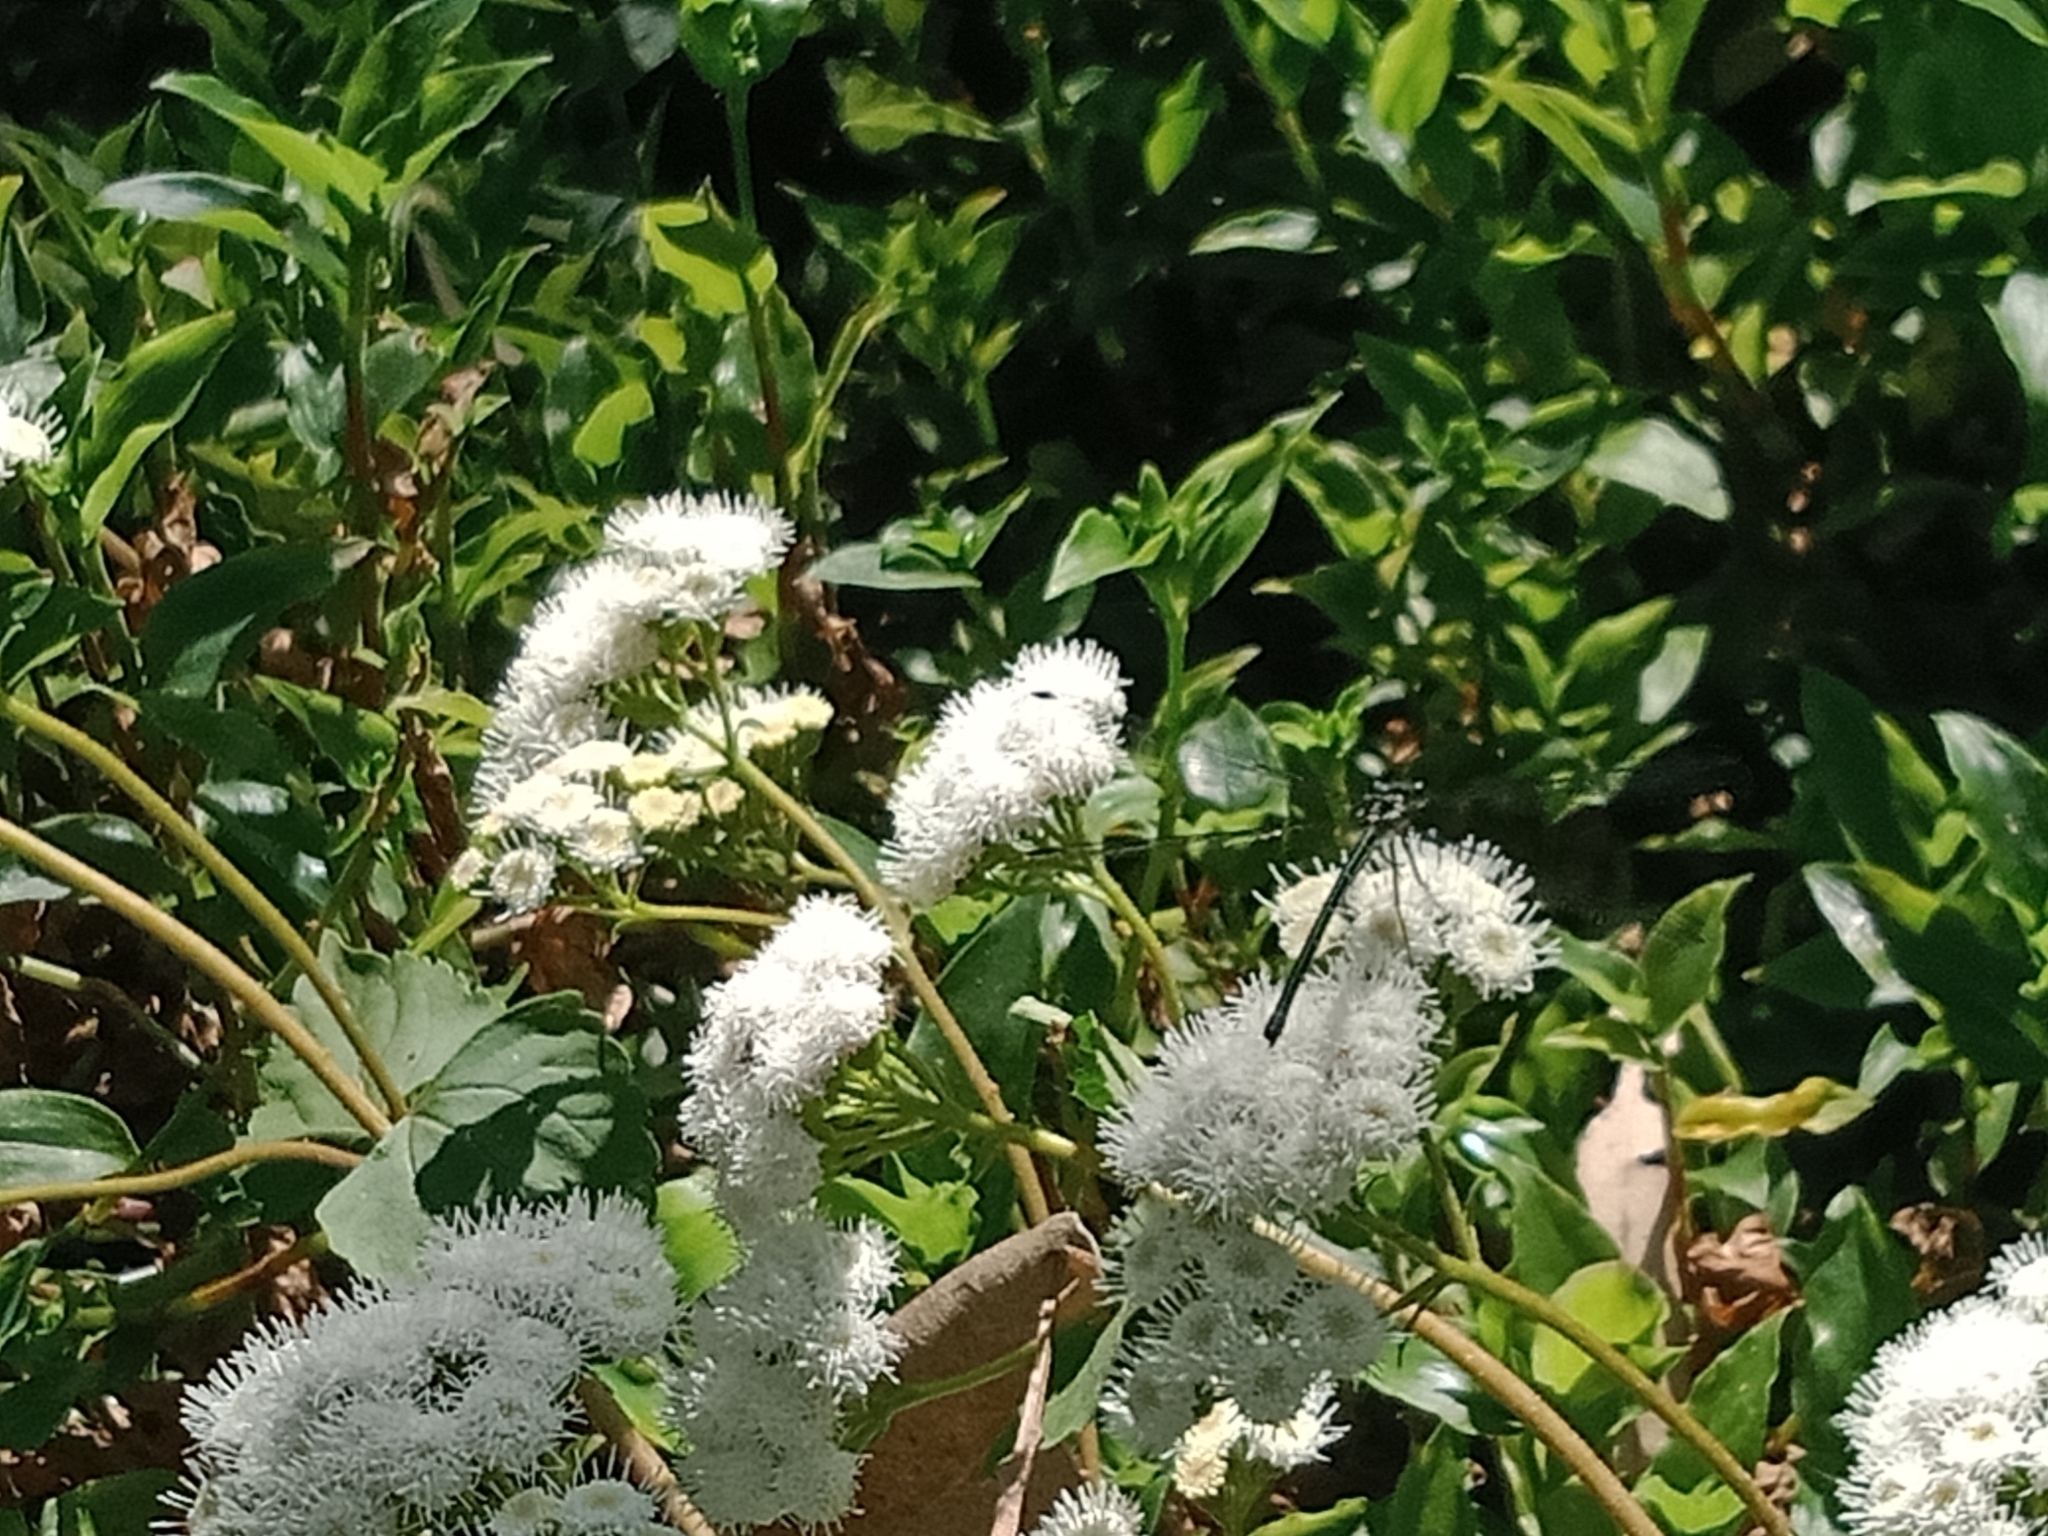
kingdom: Plantae
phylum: Tracheophyta
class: Magnoliopsida
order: Asterales
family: Asteraceae
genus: Ageratina
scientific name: Ageratina adenophora
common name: Sticky snakeroot
